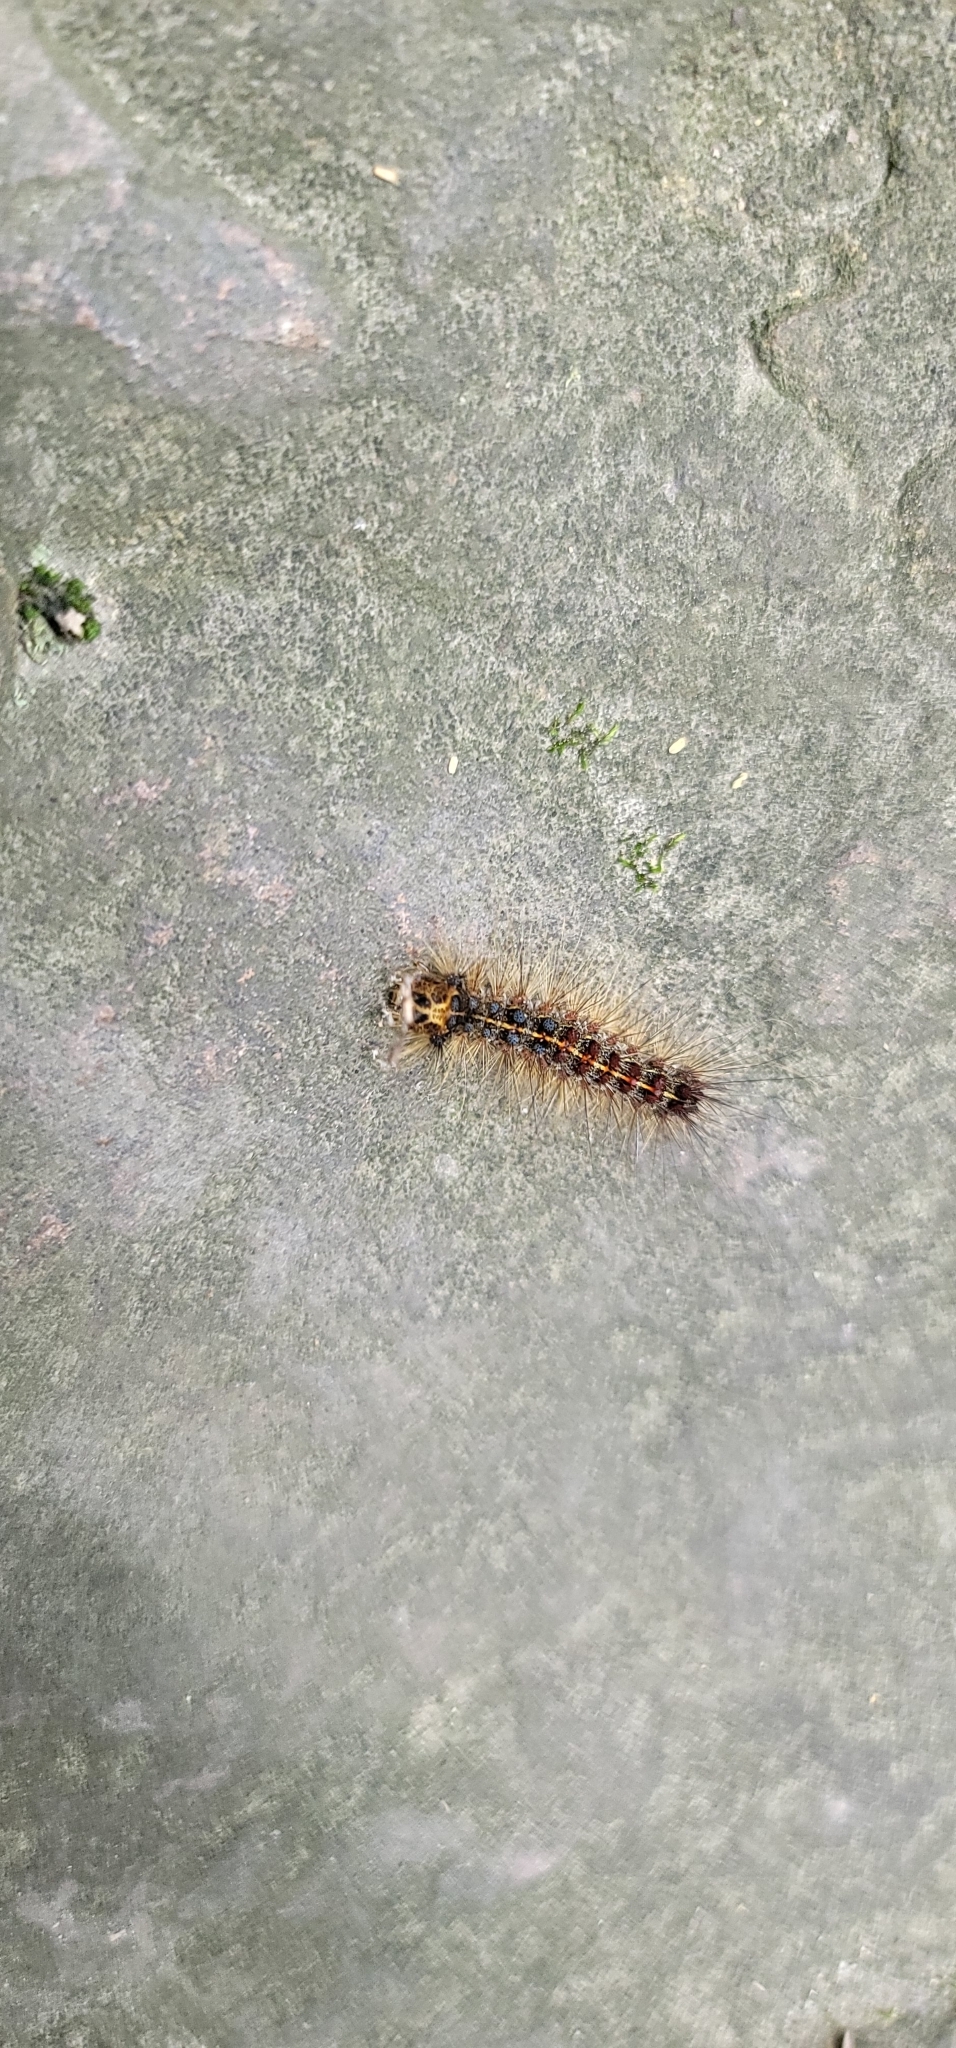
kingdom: Animalia
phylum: Arthropoda
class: Insecta
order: Lepidoptera
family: Erebidae
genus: Lymantria
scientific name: Lymantria dispar
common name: Gypsy moth
